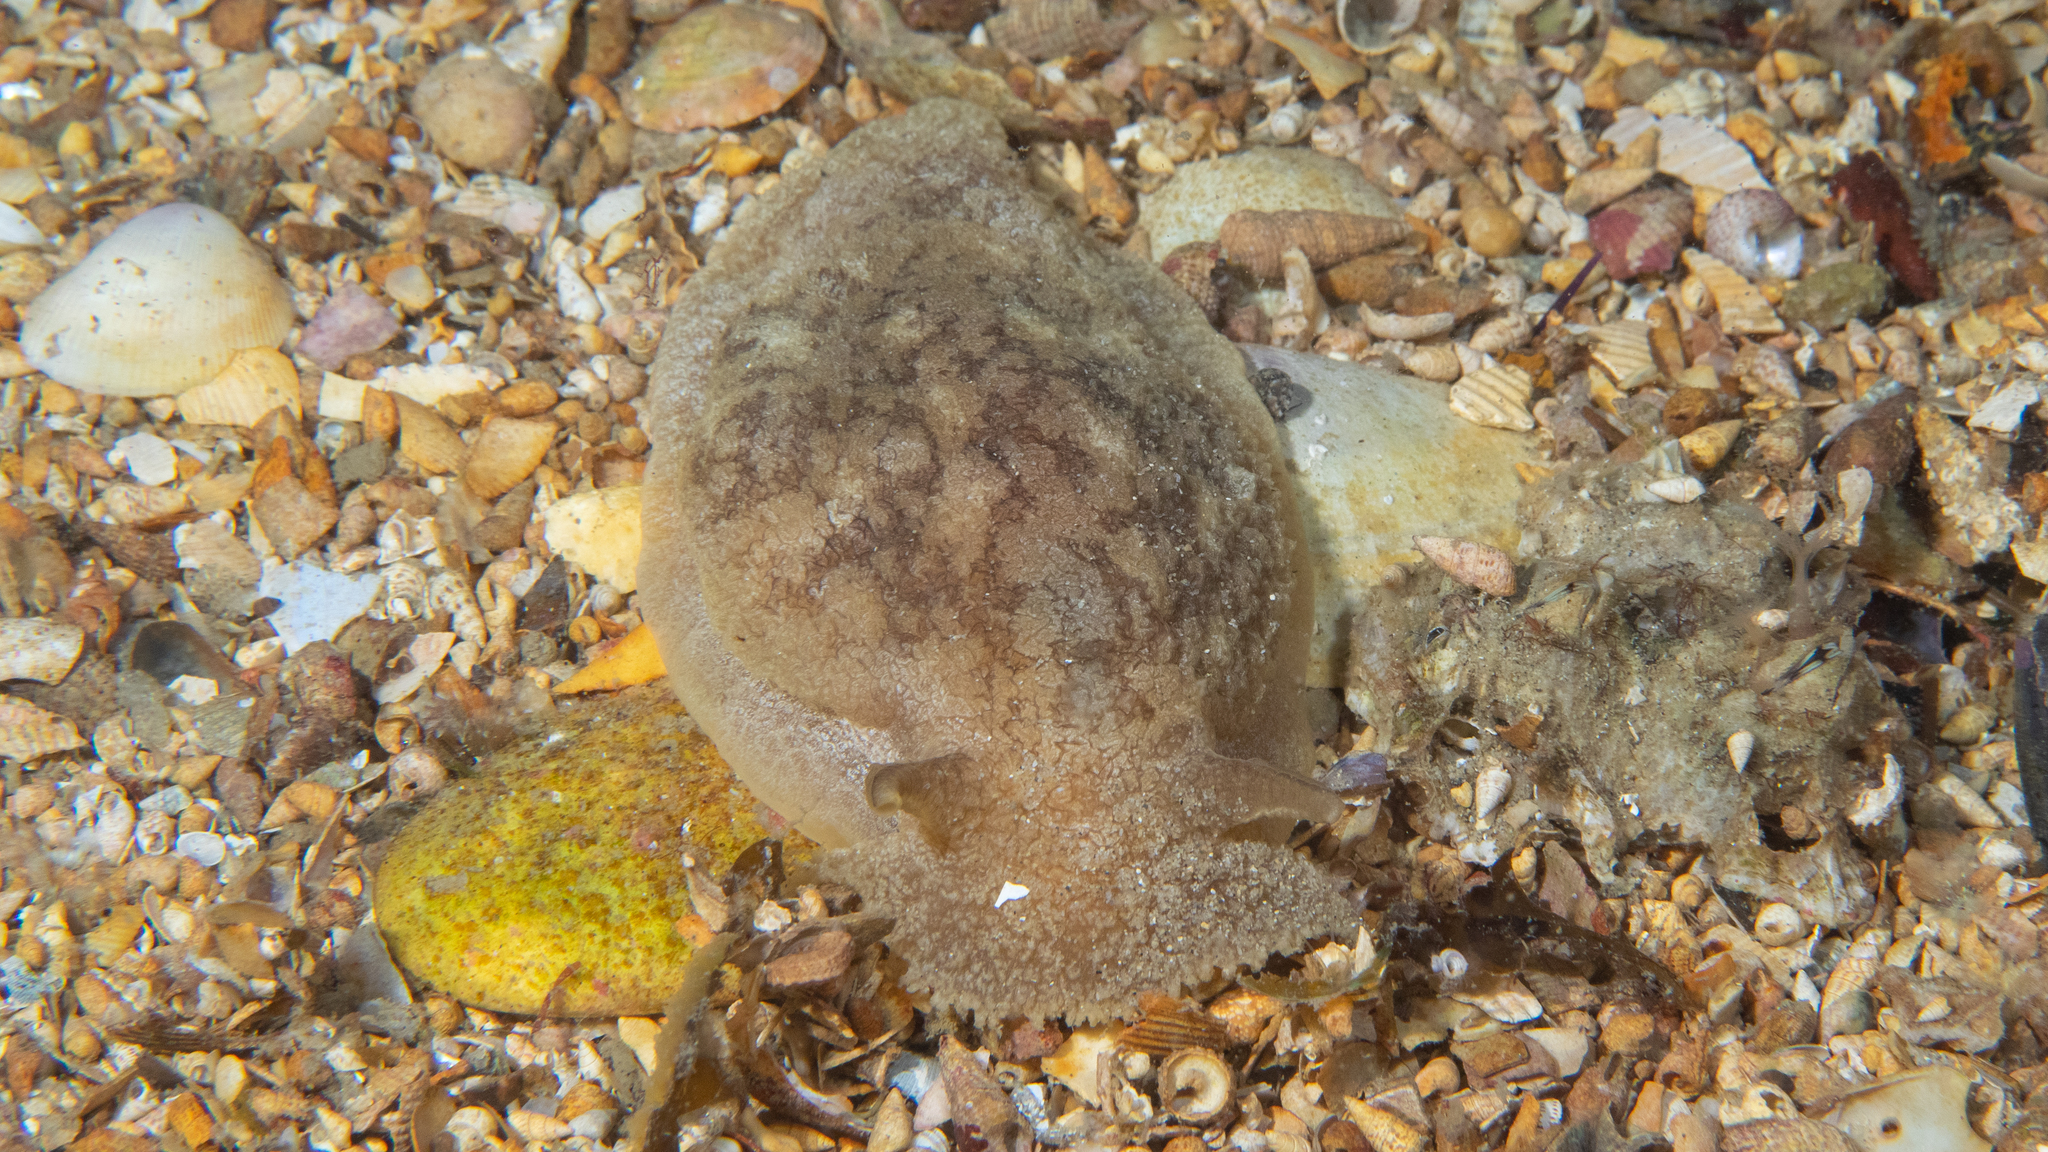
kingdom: Animalia
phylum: Mollusca
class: Gastropoda
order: Pleurobranchida
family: Pleurobranchaeidae
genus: Pleurobranchaea
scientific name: Pleurobranchaea maculata
